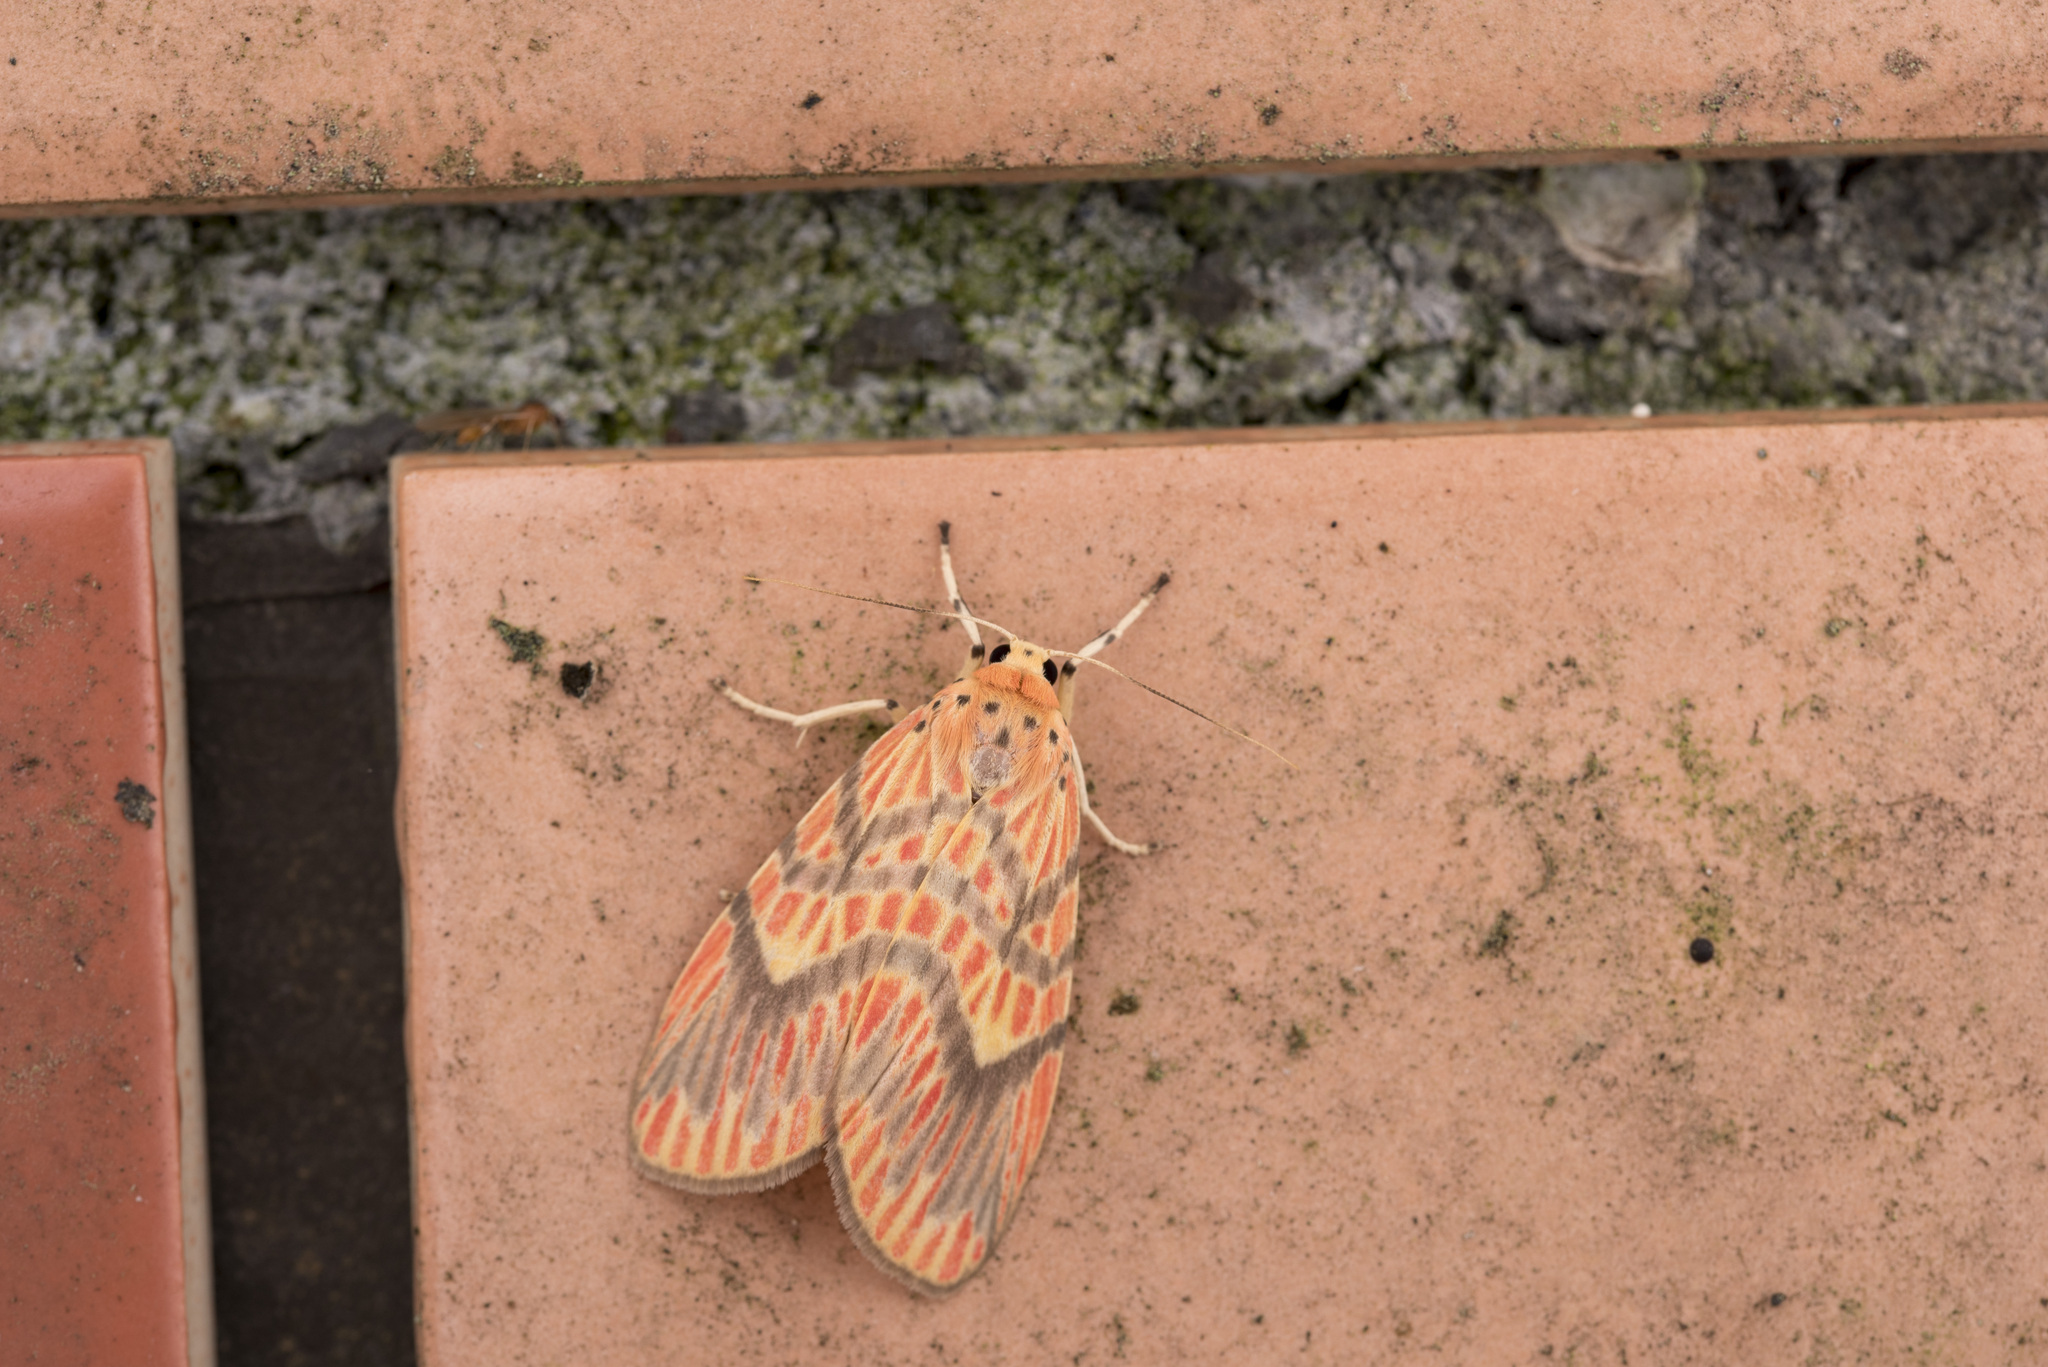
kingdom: Animalia
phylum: Arthropoda
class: Insecta
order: Lepidoptera
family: Erebidae
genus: Barsine
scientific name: Barsine fuscozonata
